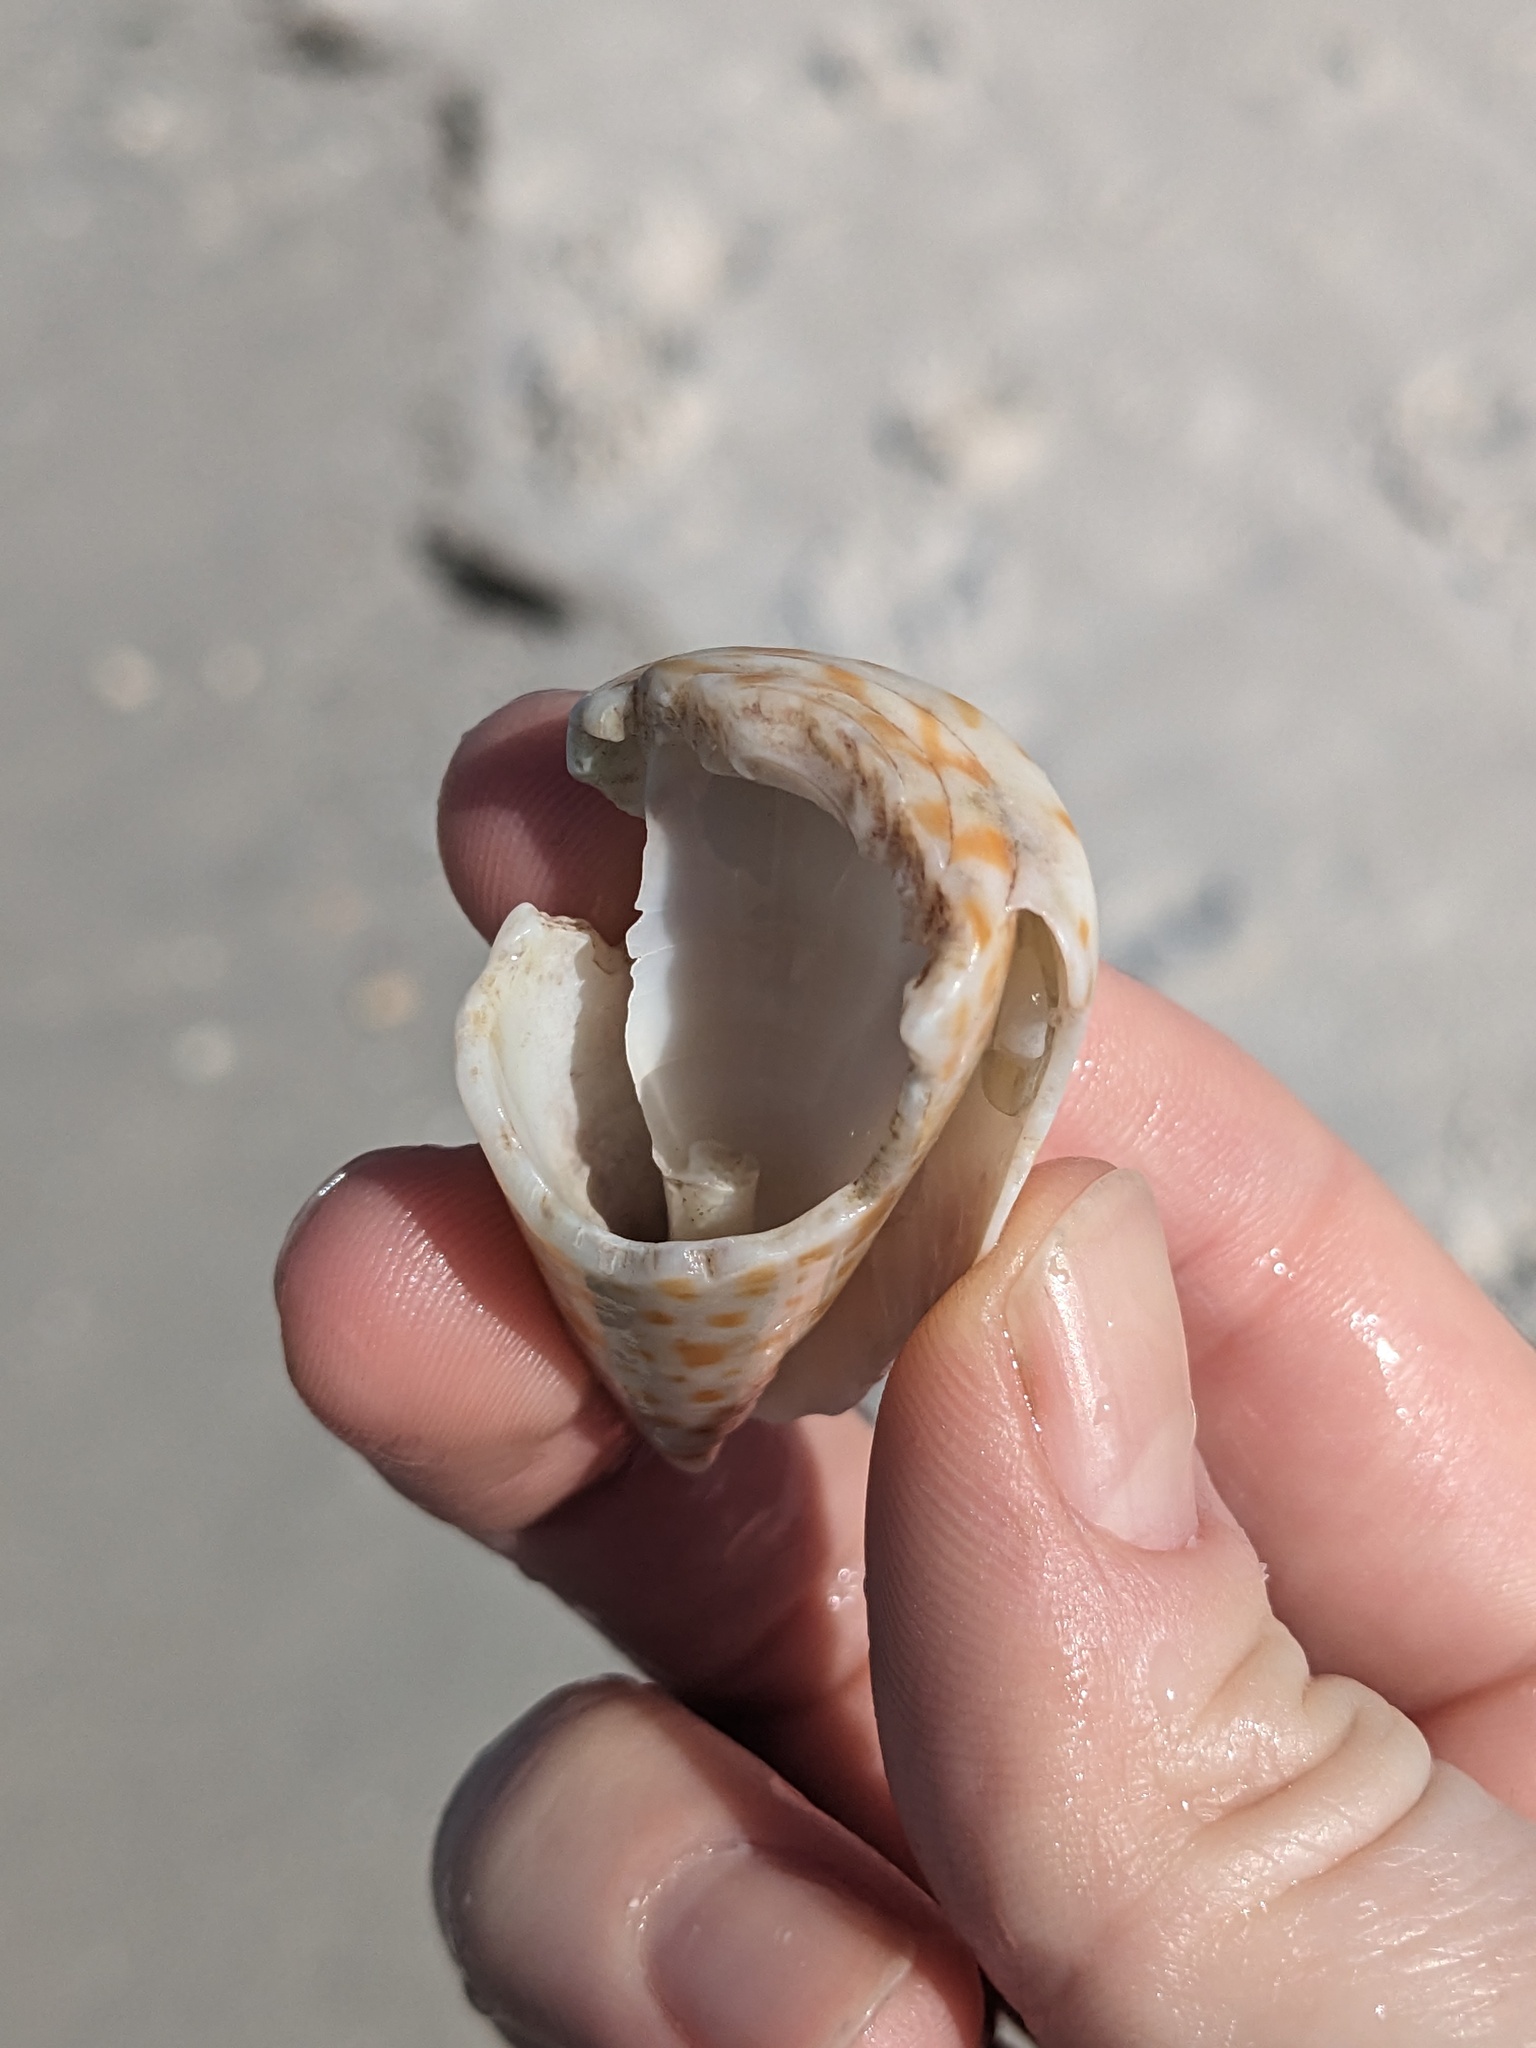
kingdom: Animalia
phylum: Mollusca
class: Gastropoda
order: Neogastropoda
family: Conidae
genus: Conus
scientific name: Conus spurius
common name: Alphabet cone
